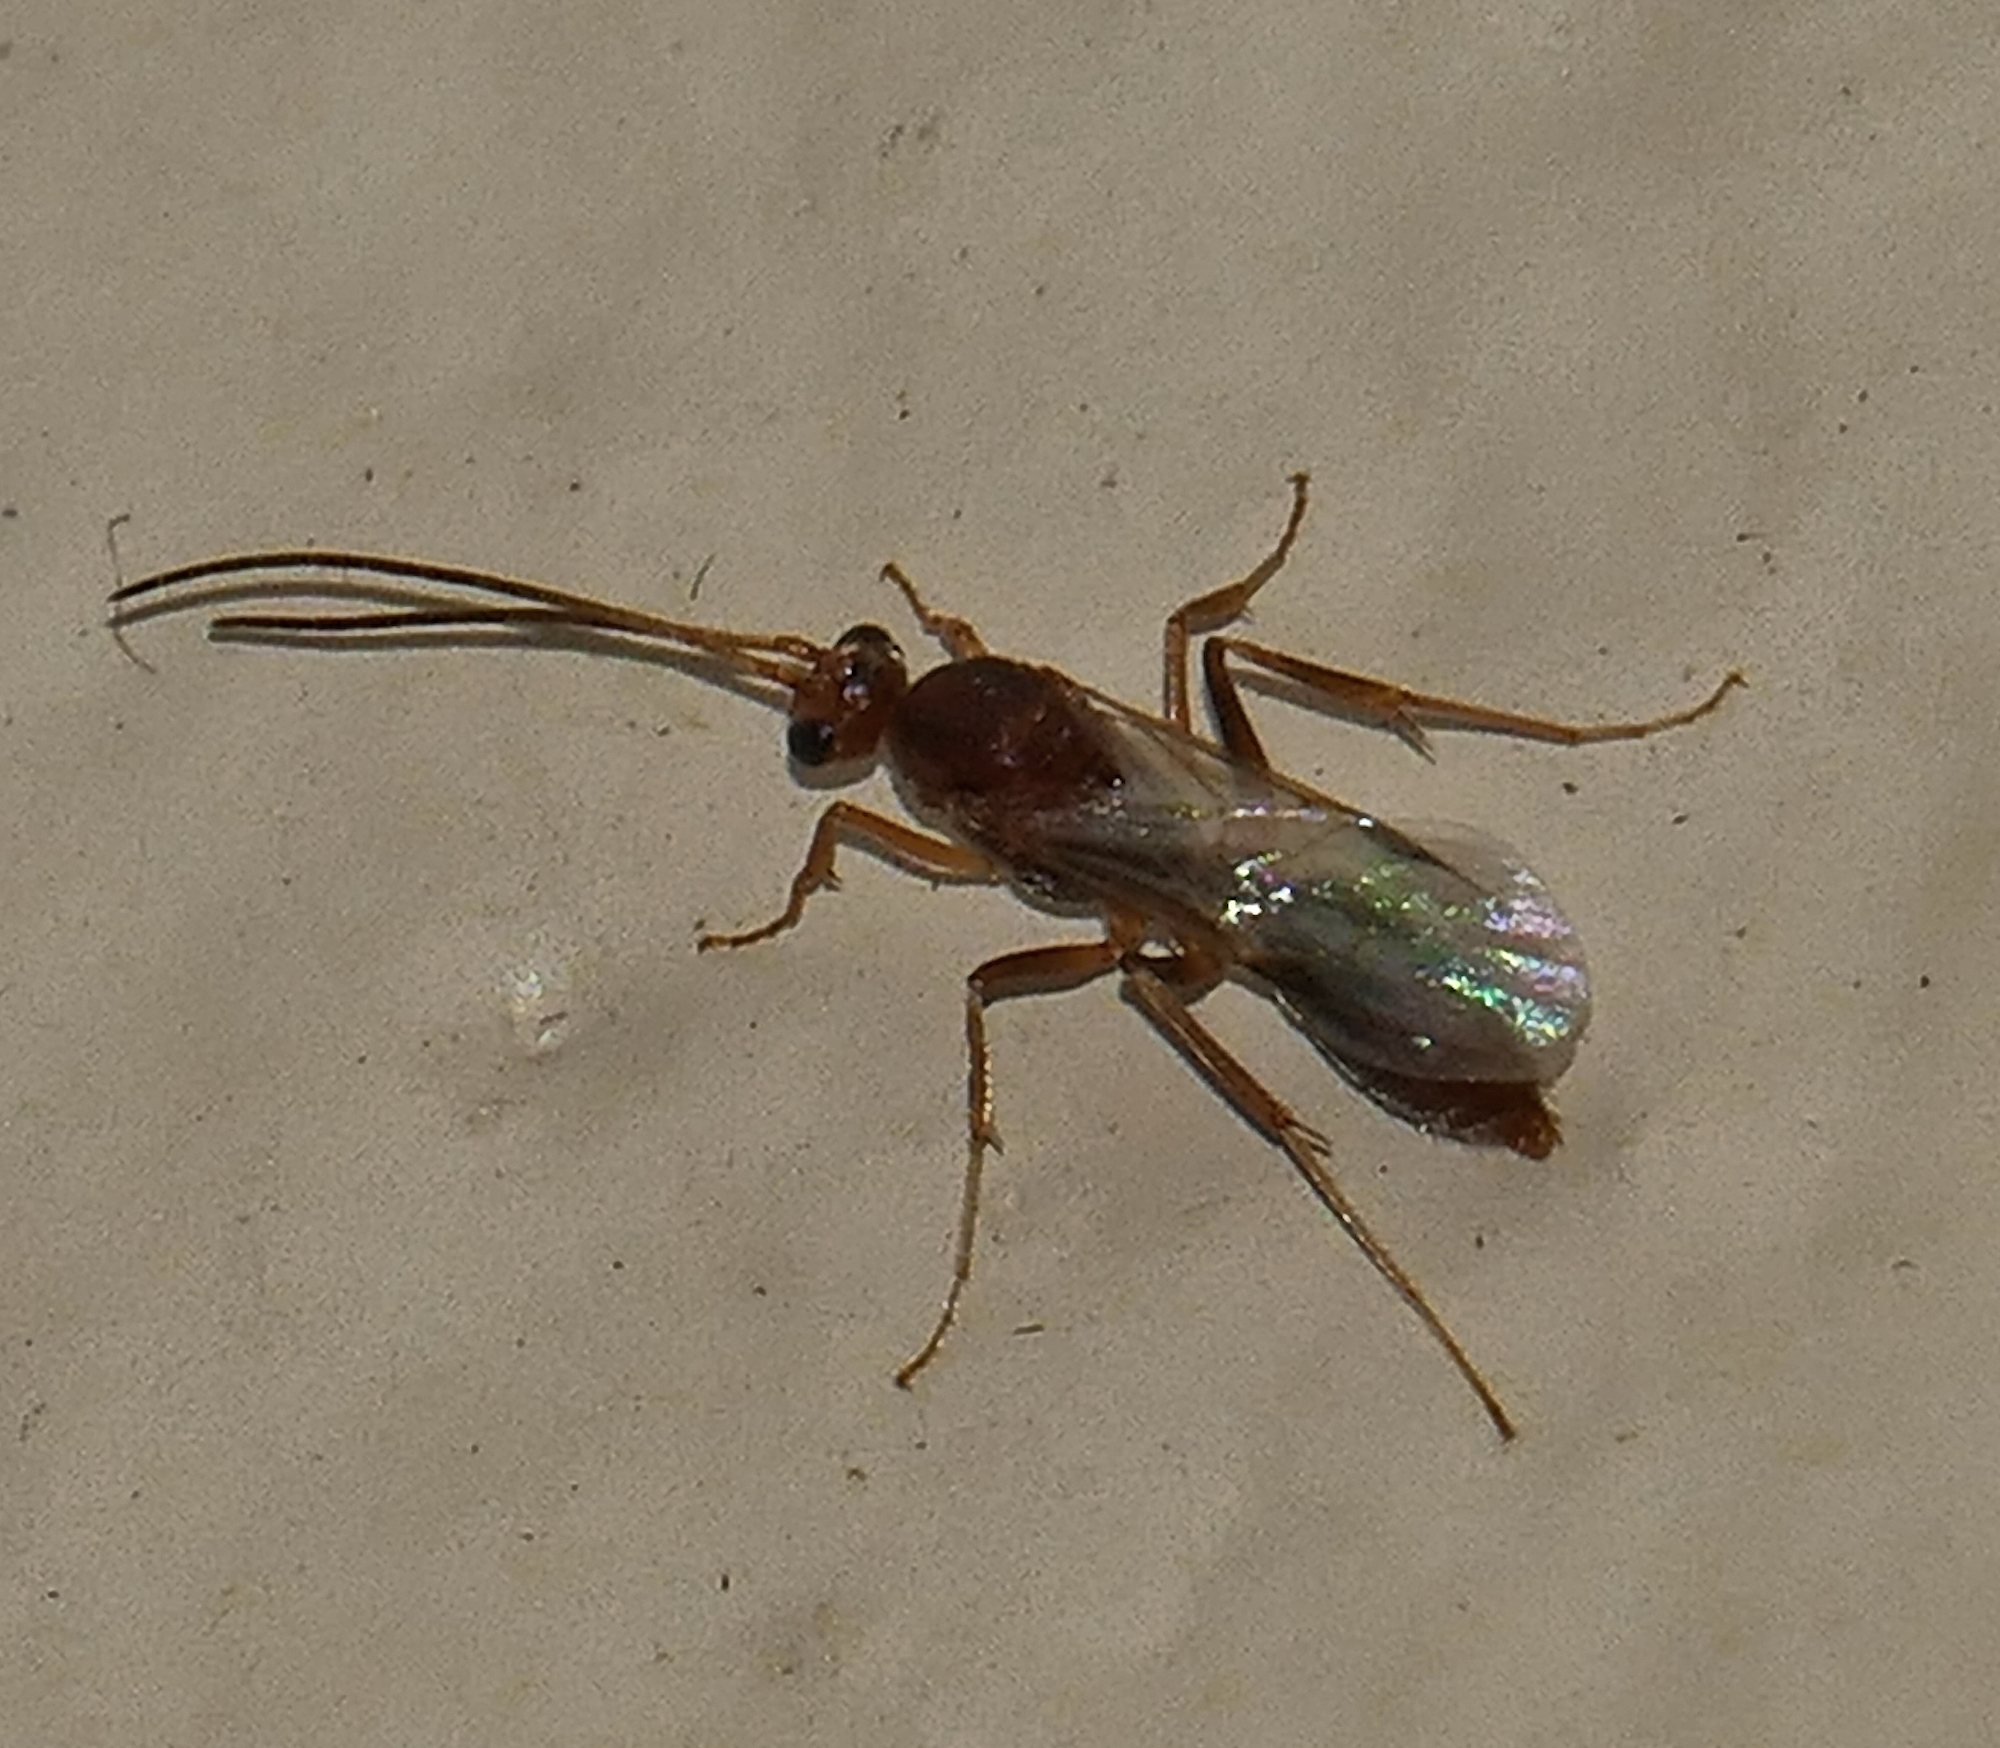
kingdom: Animalia
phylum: Arthropoda
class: Insecta
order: Hymenoptera
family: Formicidae
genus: Odontomachus
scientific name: Odontomachus
